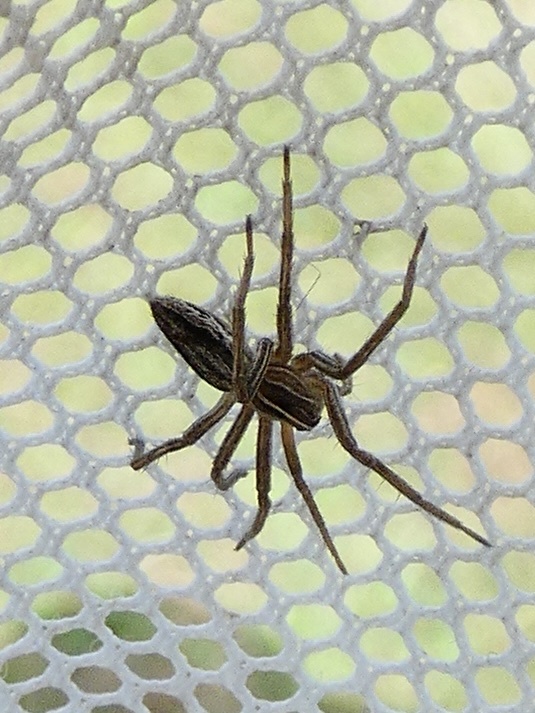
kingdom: Animalia
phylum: Arthropoda
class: Arachnida
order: Araneae
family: Pisauridae
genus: Pisaura
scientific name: Pisaura mirabilis
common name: Tent spider
